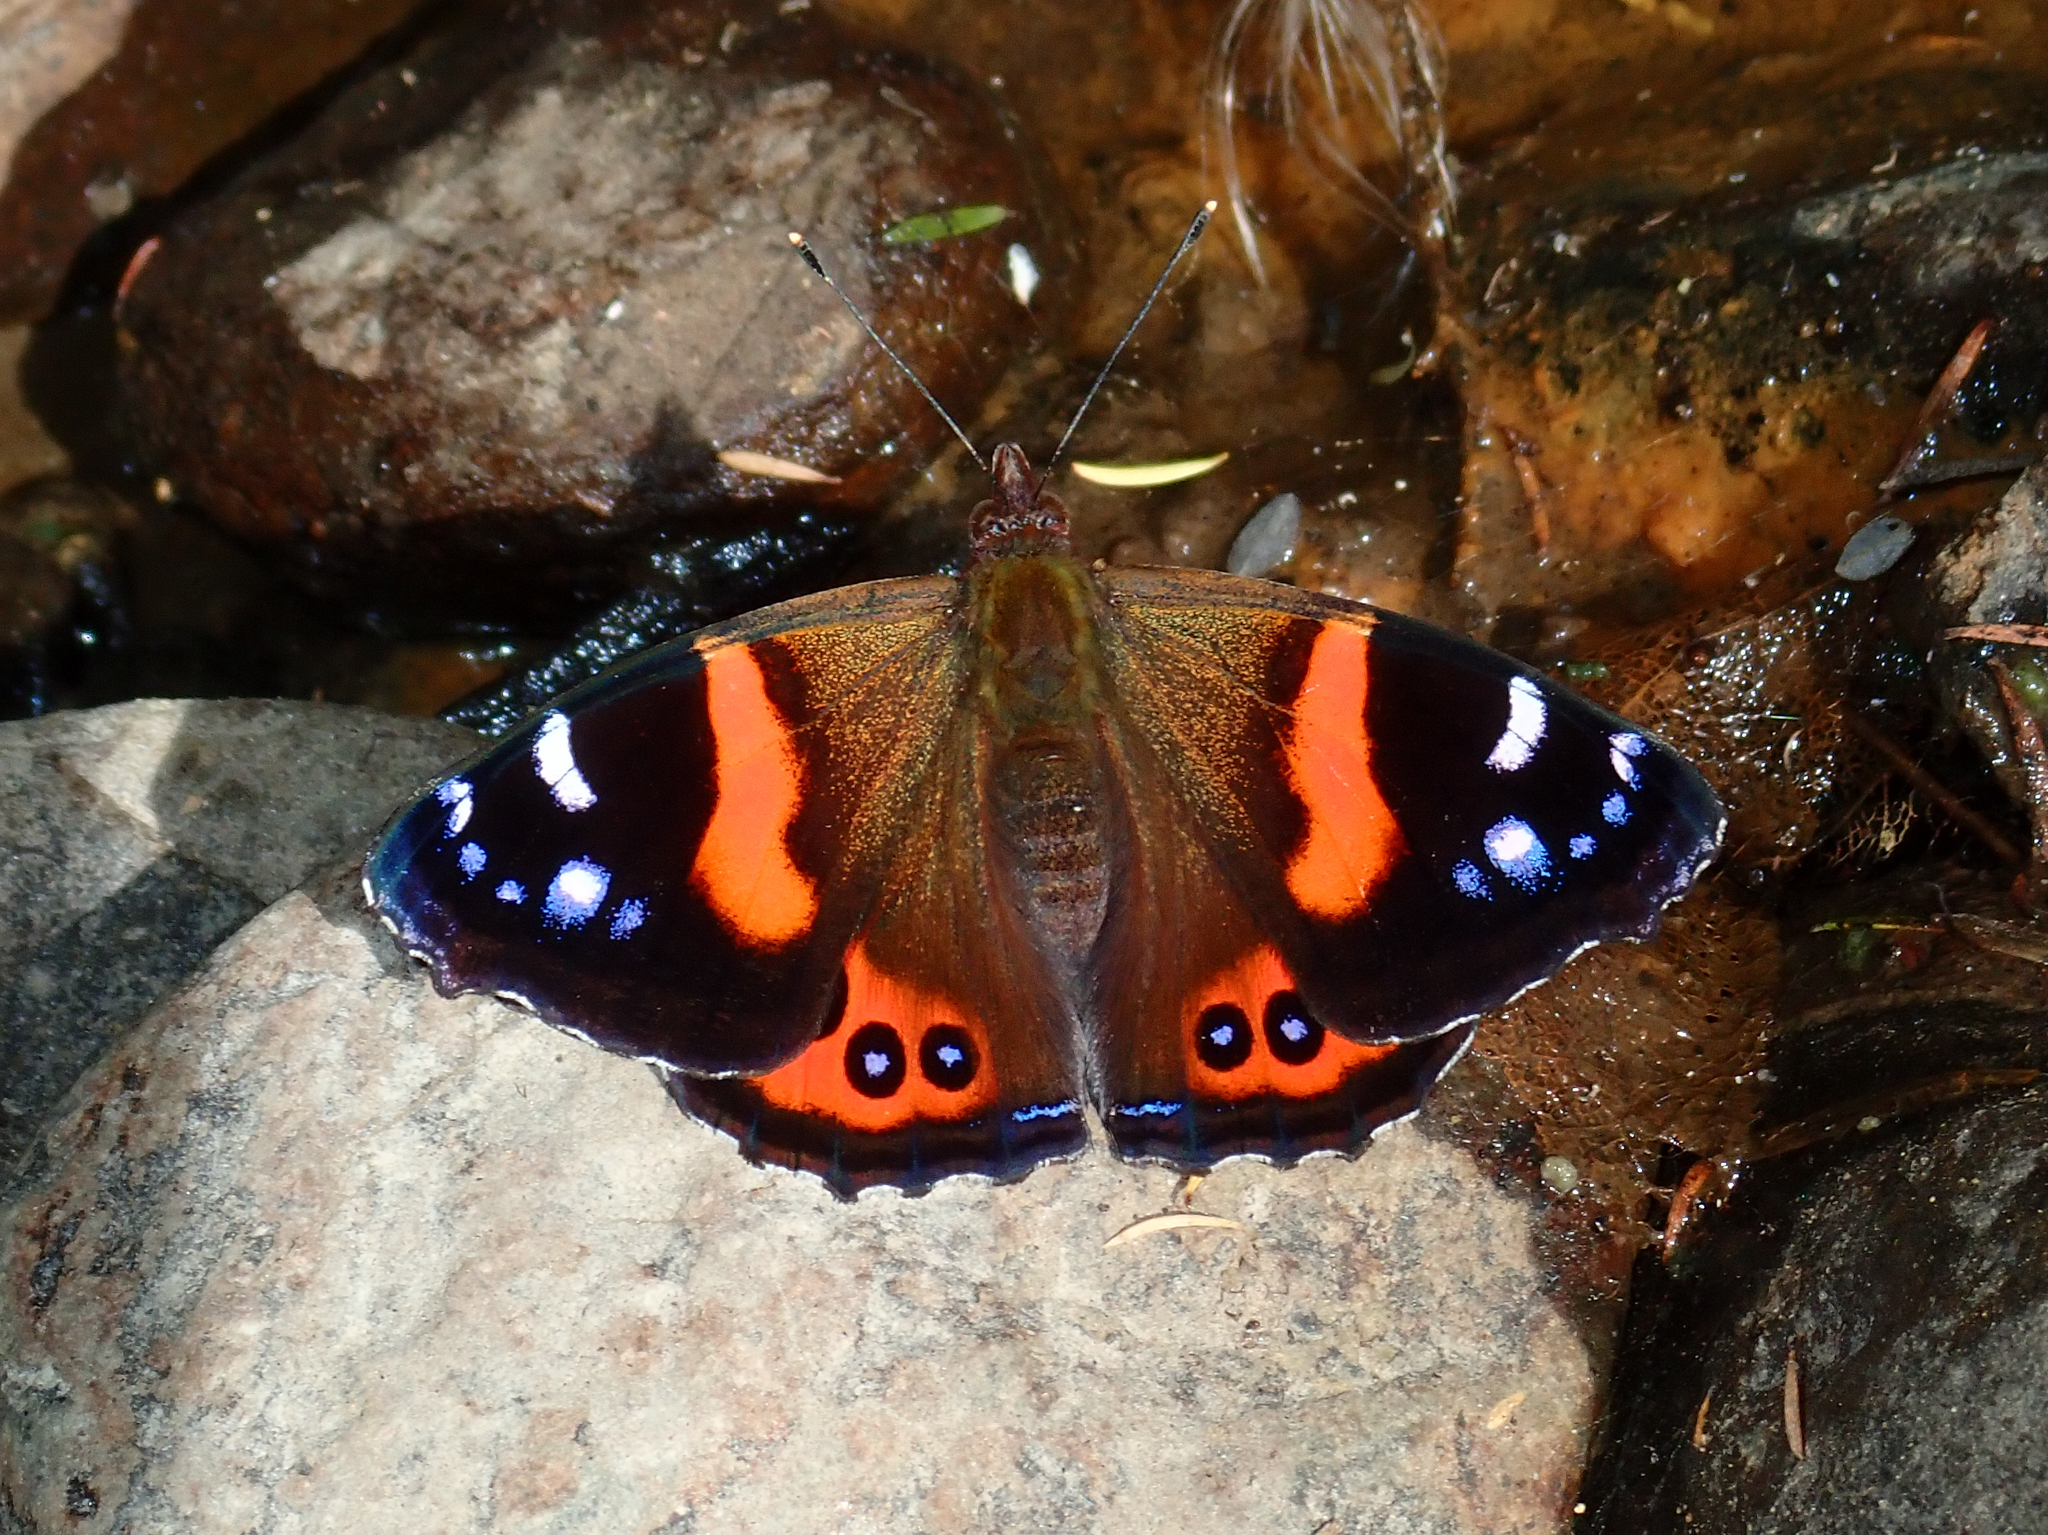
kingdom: Animalia
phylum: Arthropoda
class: Insecta
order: Lepidoptera
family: Nymphalidae
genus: Vanessa
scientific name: Vanessa gonerilla
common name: New zealand red admiral
